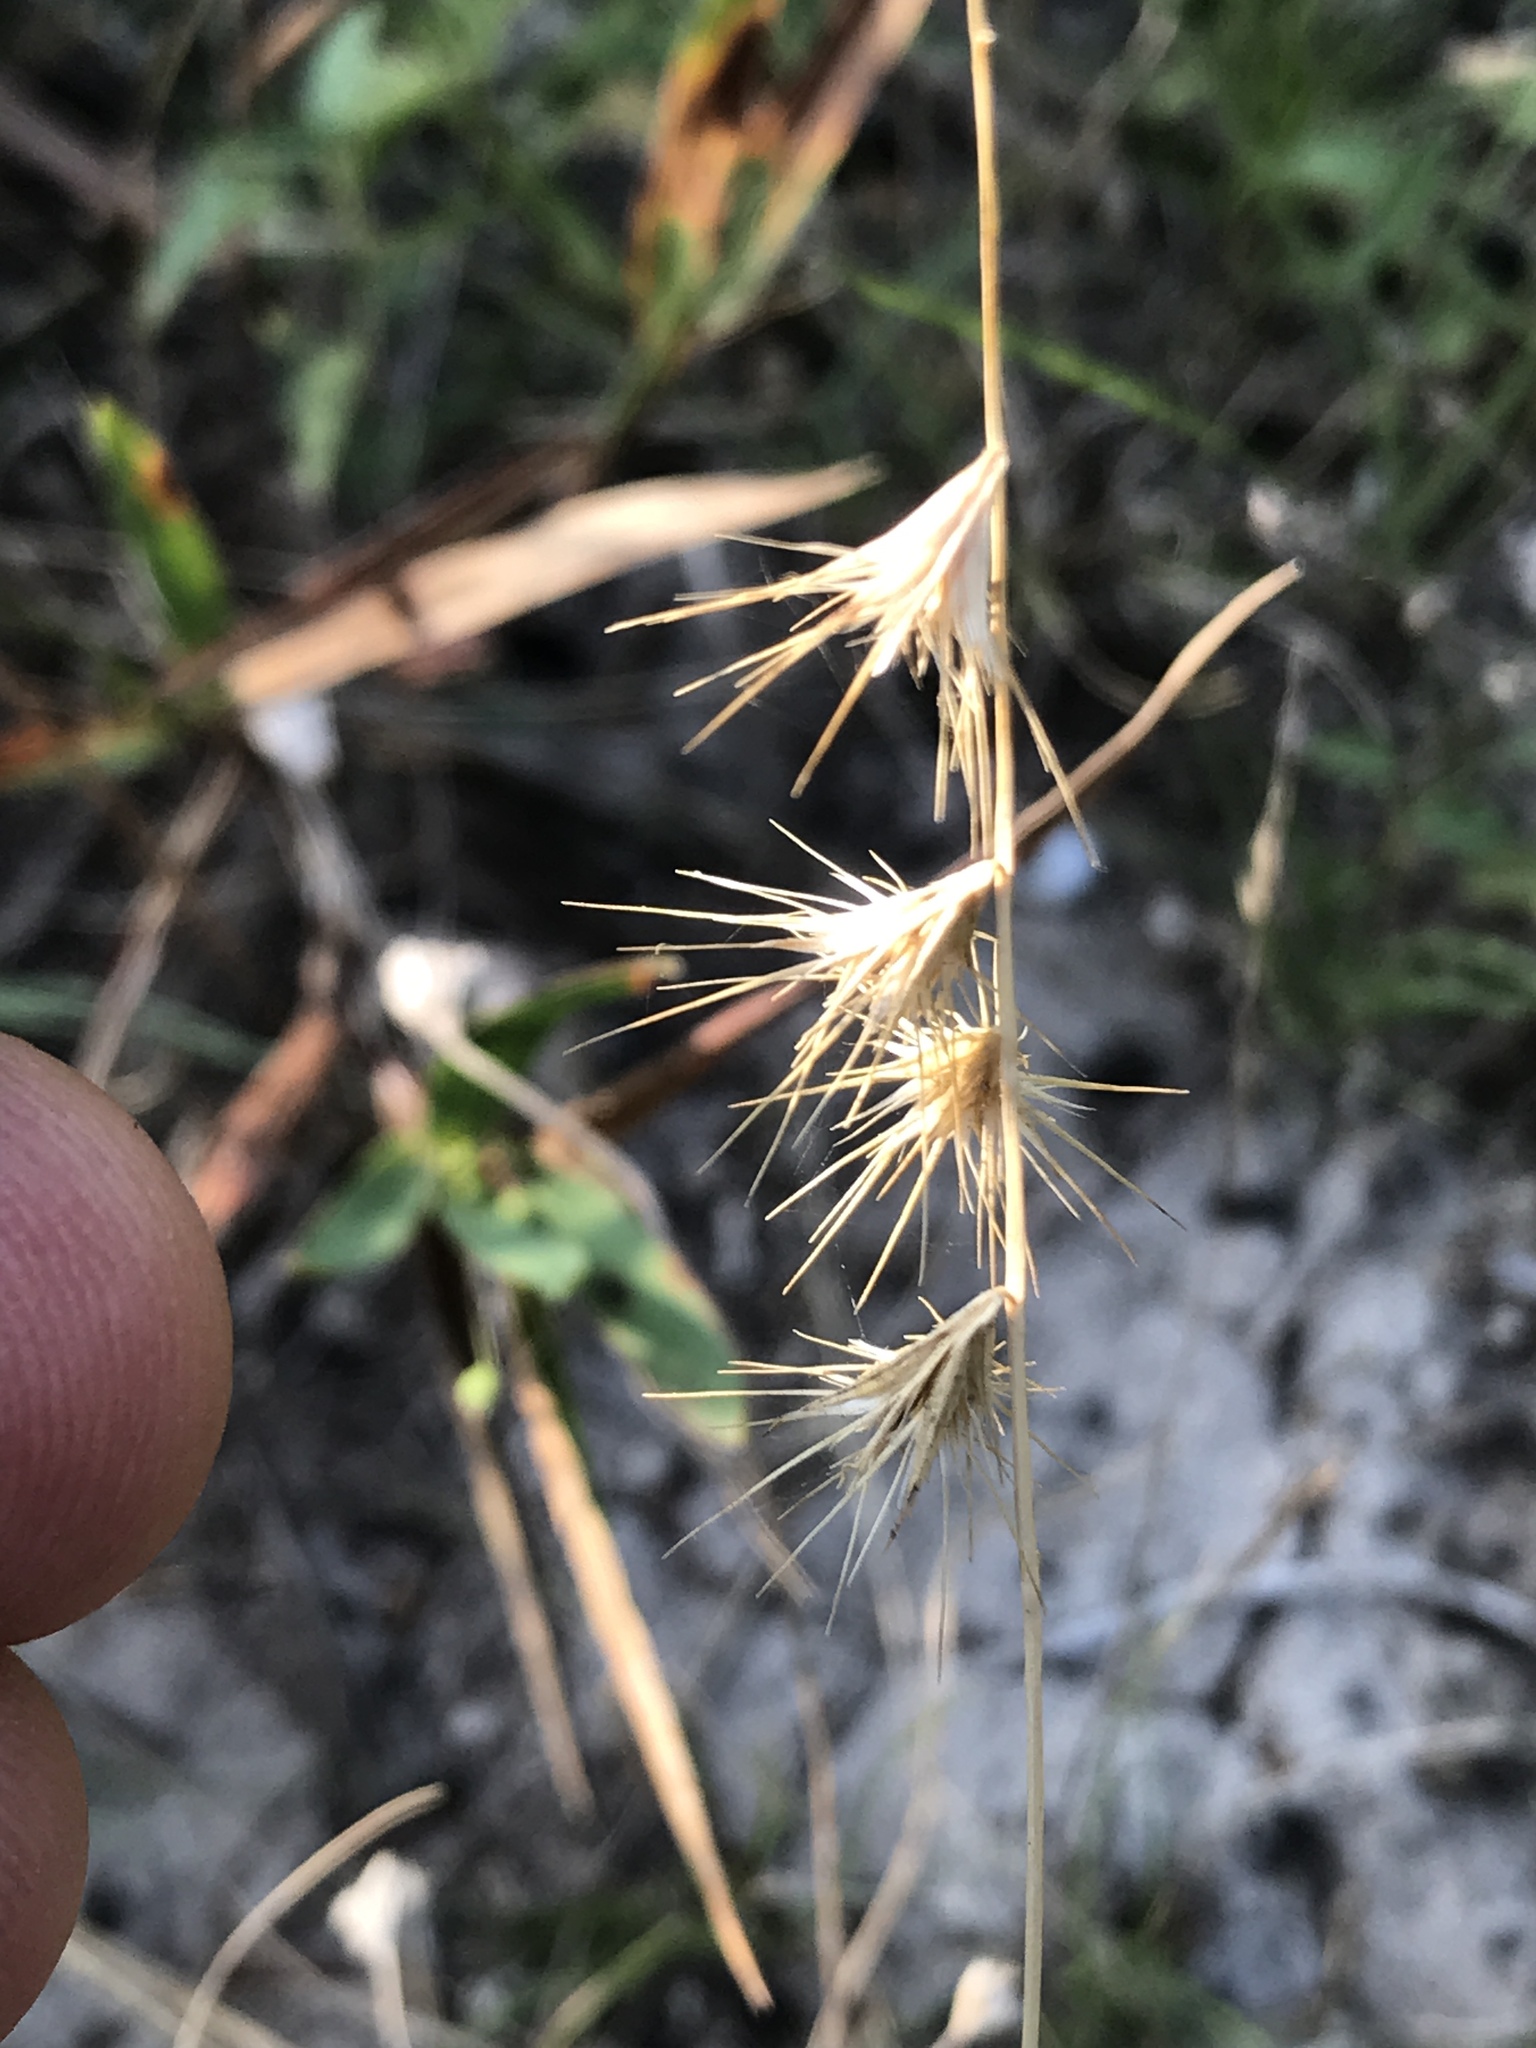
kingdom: Plantae
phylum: Tracheophyta
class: Liliopsida
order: Poales
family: Poaceae
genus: Bouteloua
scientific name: Bouteloua rigidiseta
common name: Texas grama
